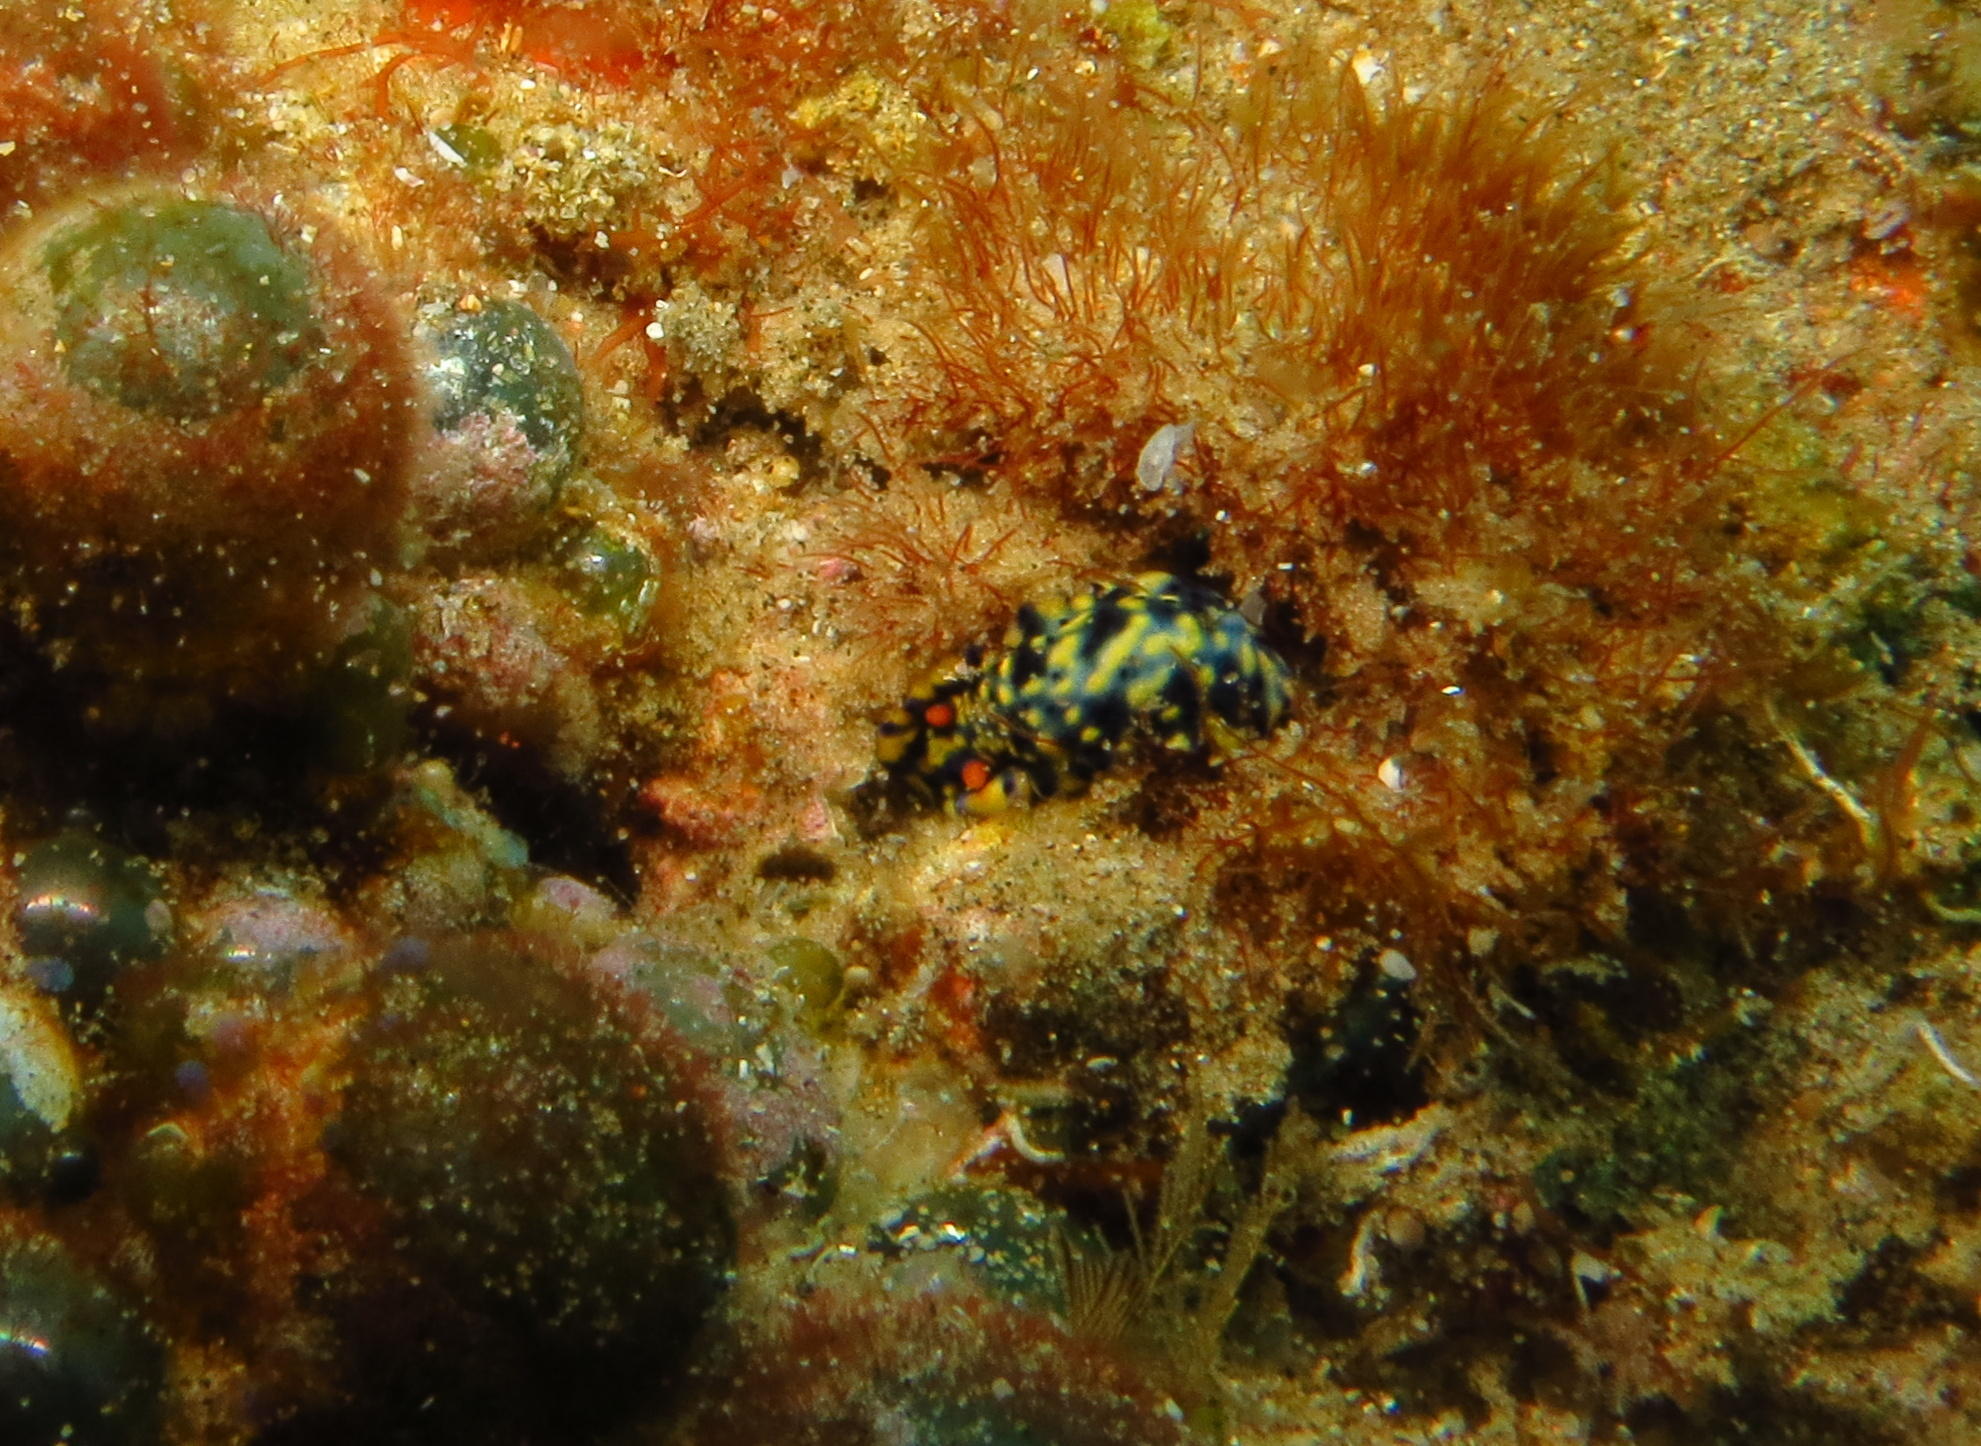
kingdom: Animalia
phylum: Mollusca
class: Gastropoda
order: Nudibranchia
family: Chromodorididae
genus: Hypselodoris
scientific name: Hypselodoris infucata
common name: Mottled dorid
